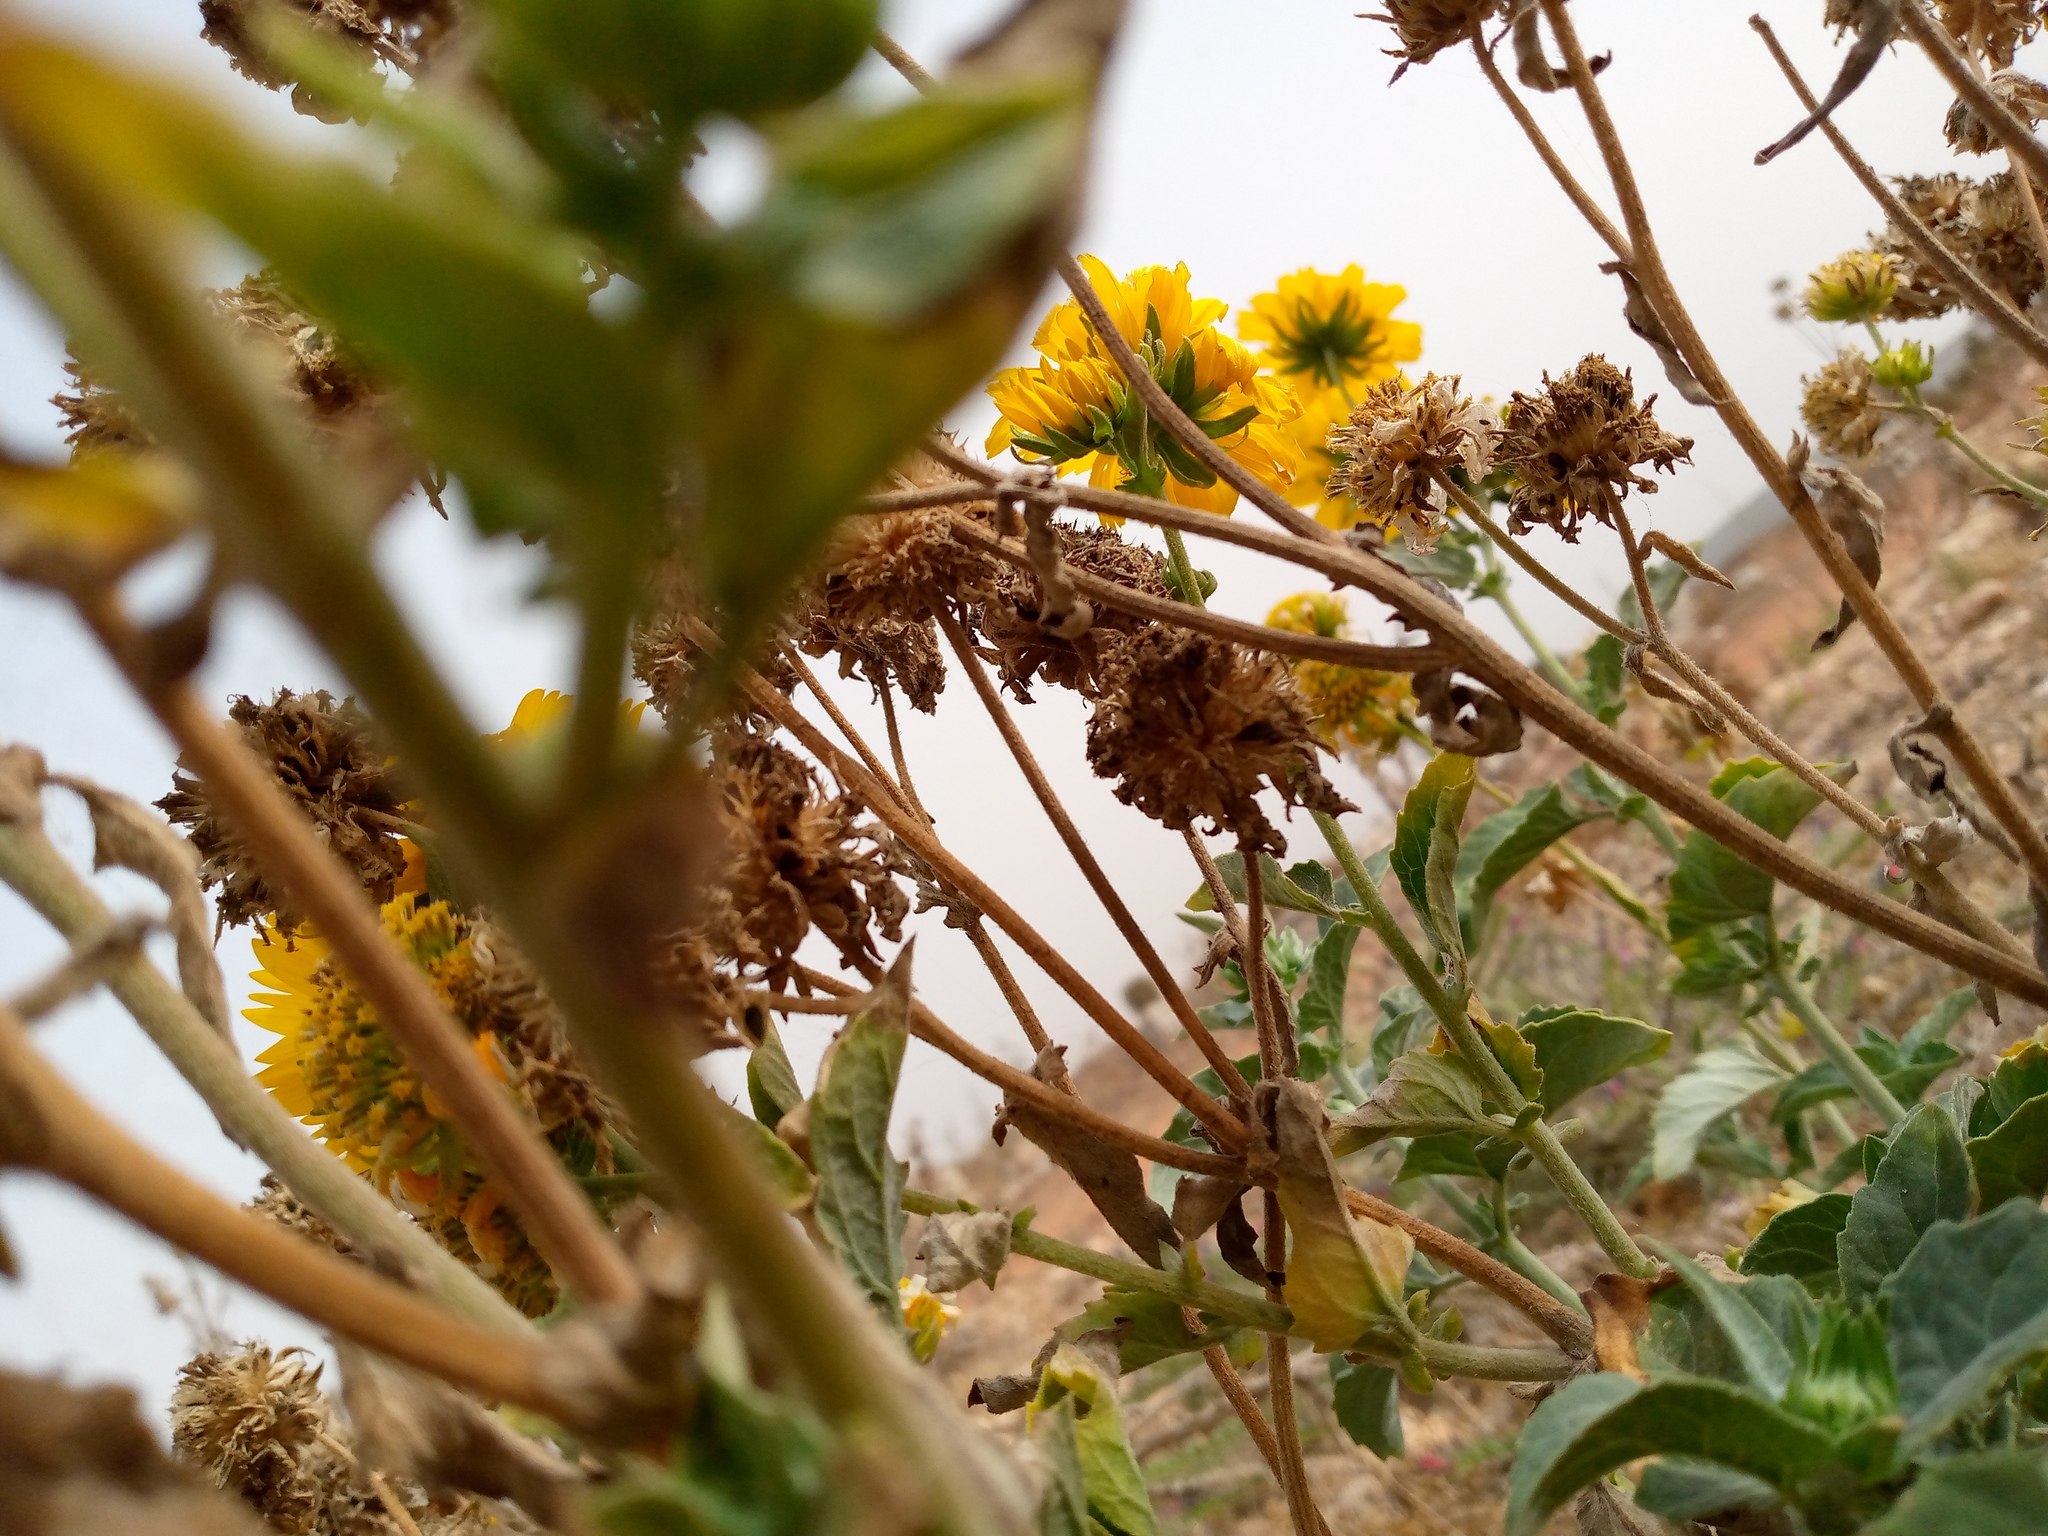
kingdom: Plantae
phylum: Tracheophyta
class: Magnoliopsida
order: Asterales
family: Asteraceae
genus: Verbesina
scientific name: Verbesina encelioides
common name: Golden crownbeard
